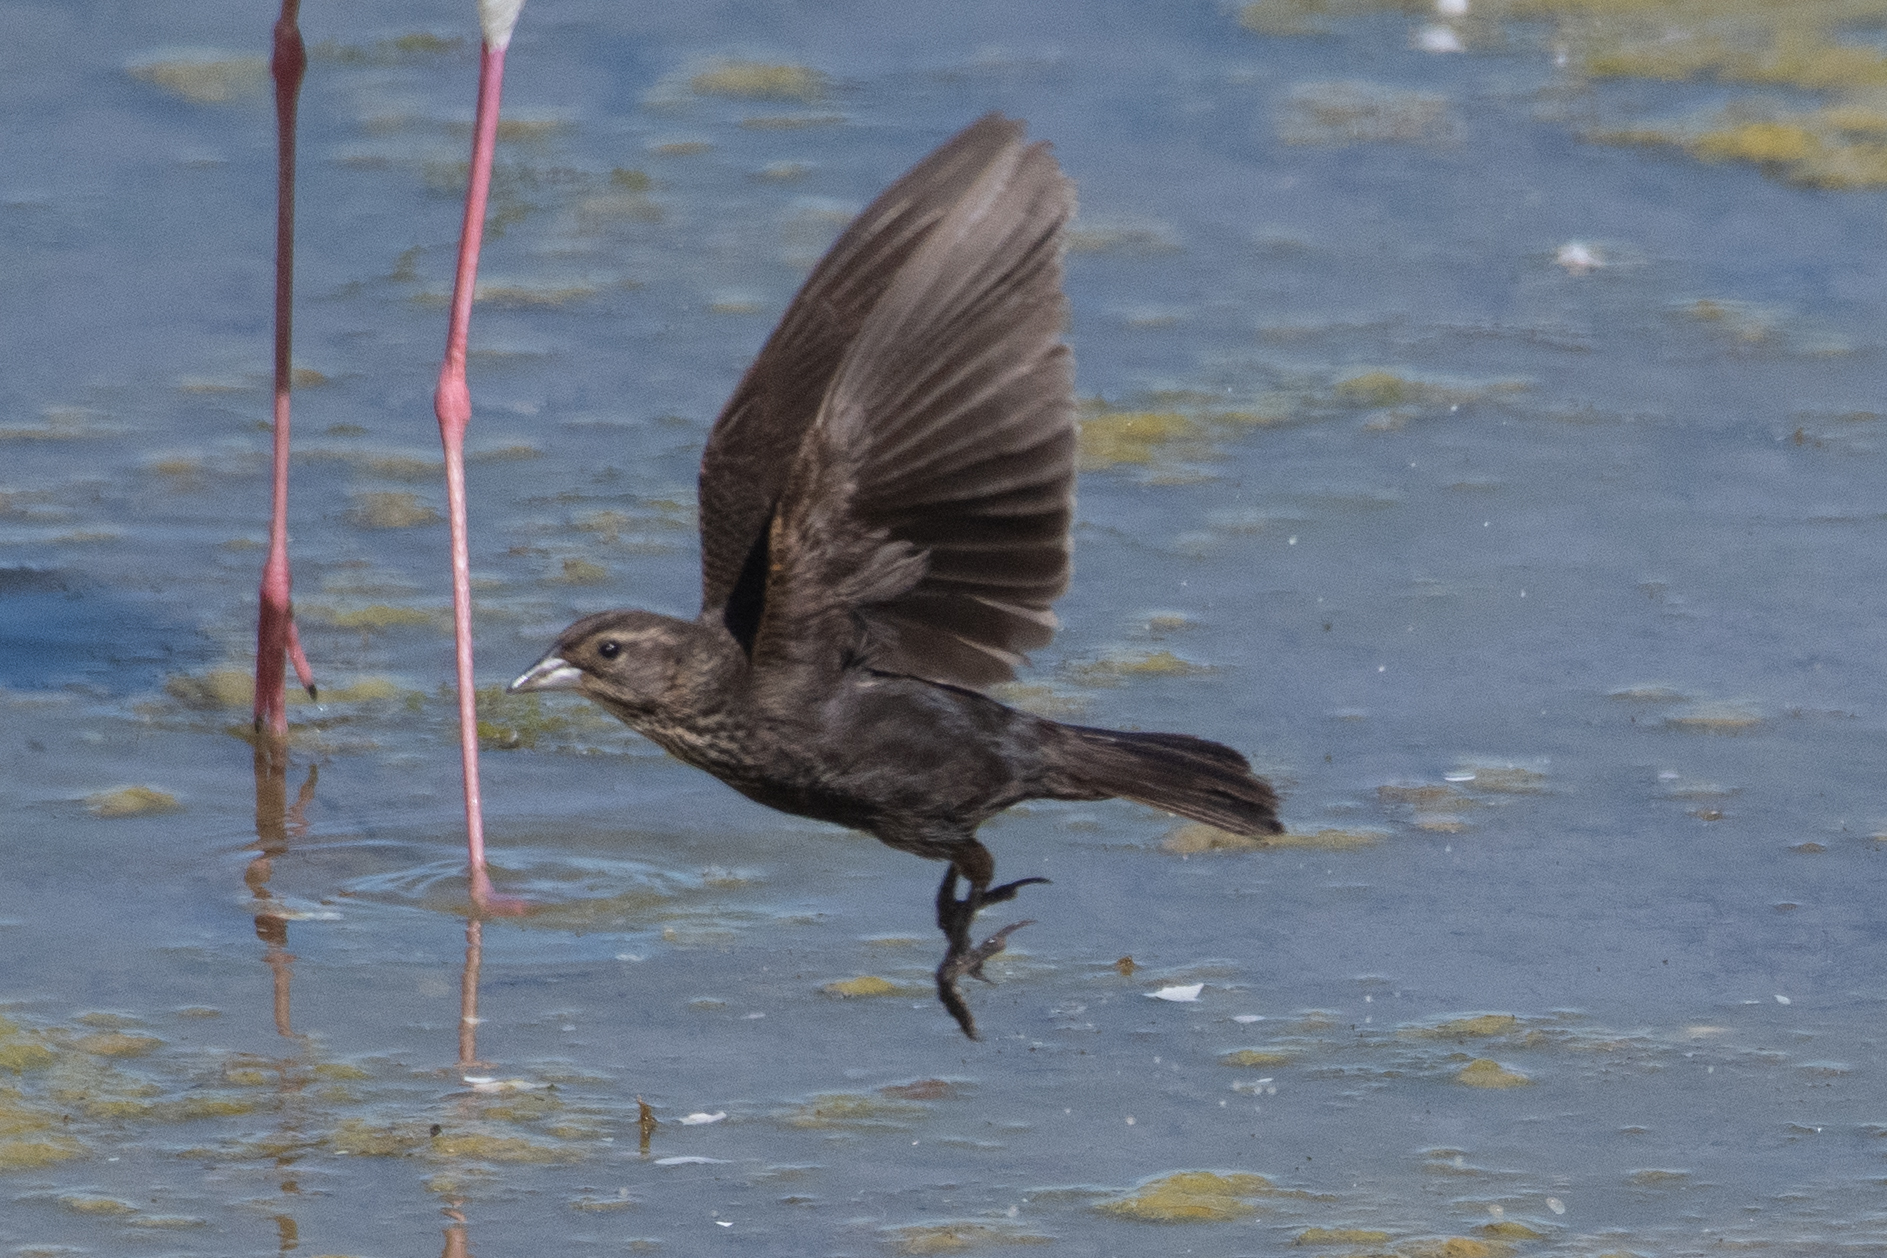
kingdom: Animalia
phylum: Chordata
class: Aves
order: Passeriformes
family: Icteridae
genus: Agelaius
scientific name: Agelaius phoeniceus
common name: Red-winged blackbird
